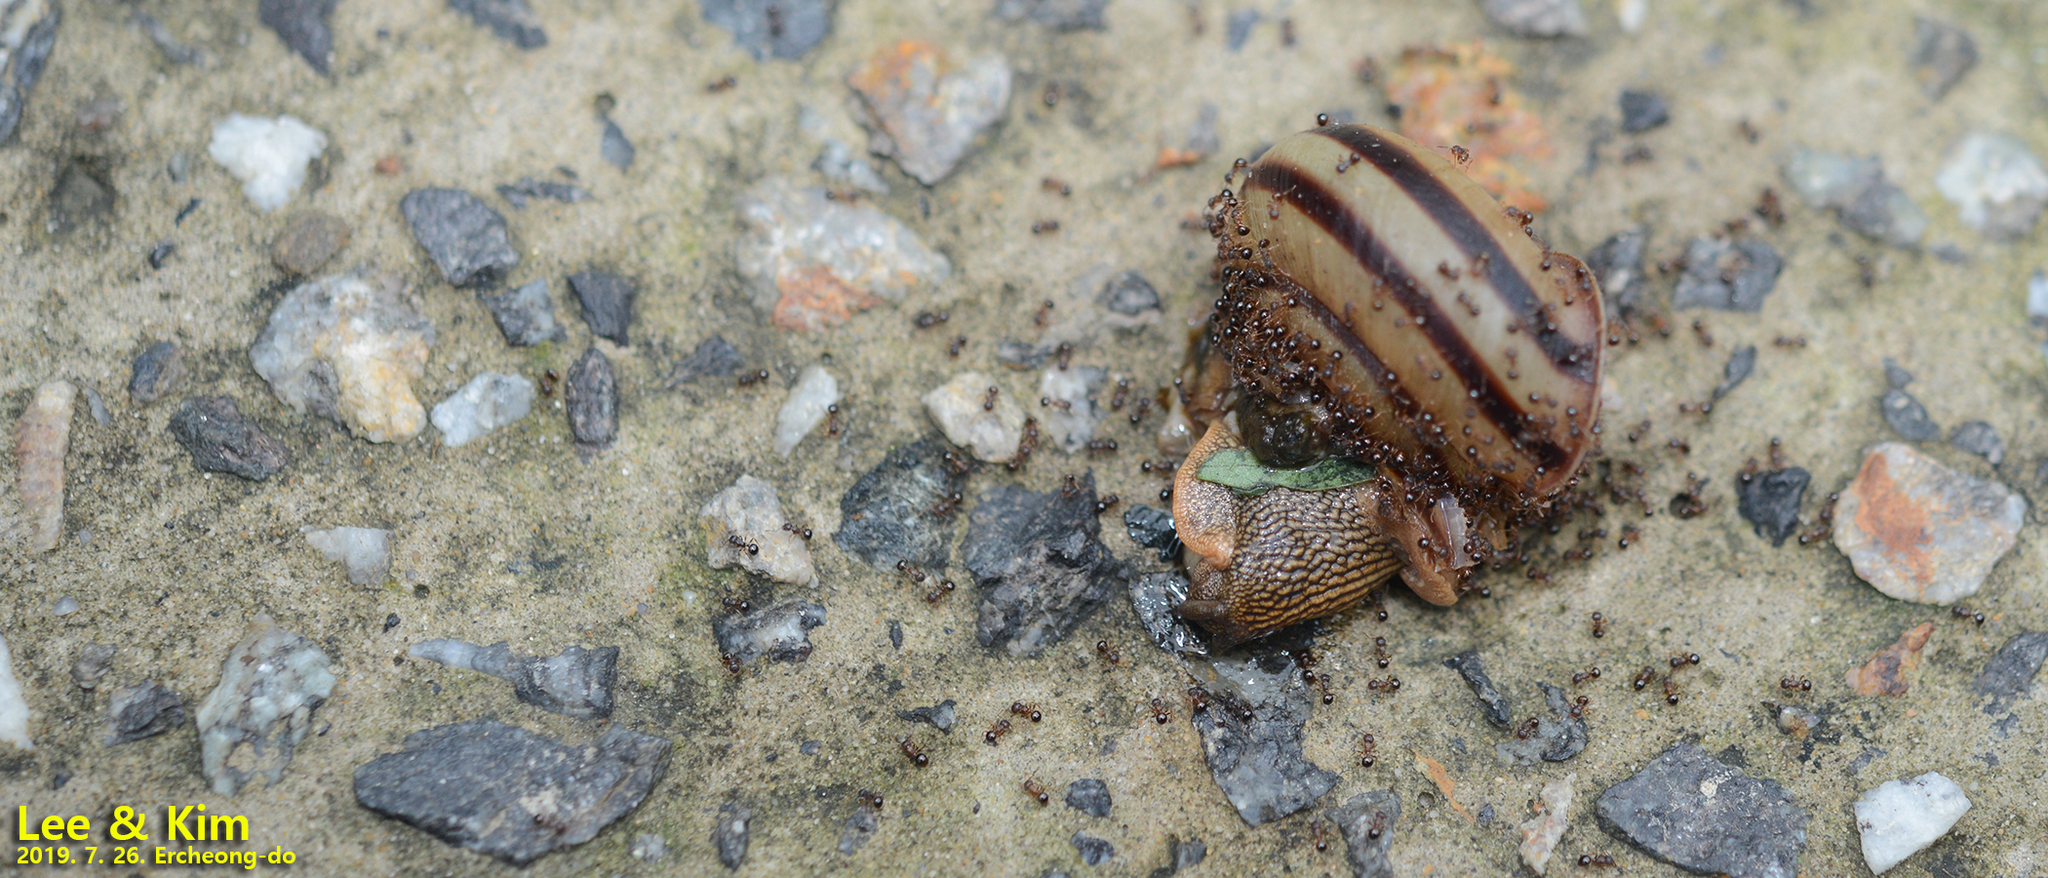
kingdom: Animalia
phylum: Arthropoda
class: Insecta
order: Hymenoptera
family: Formicidae
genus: Pristomyrmex
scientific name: Pristomyrmex punctatus
